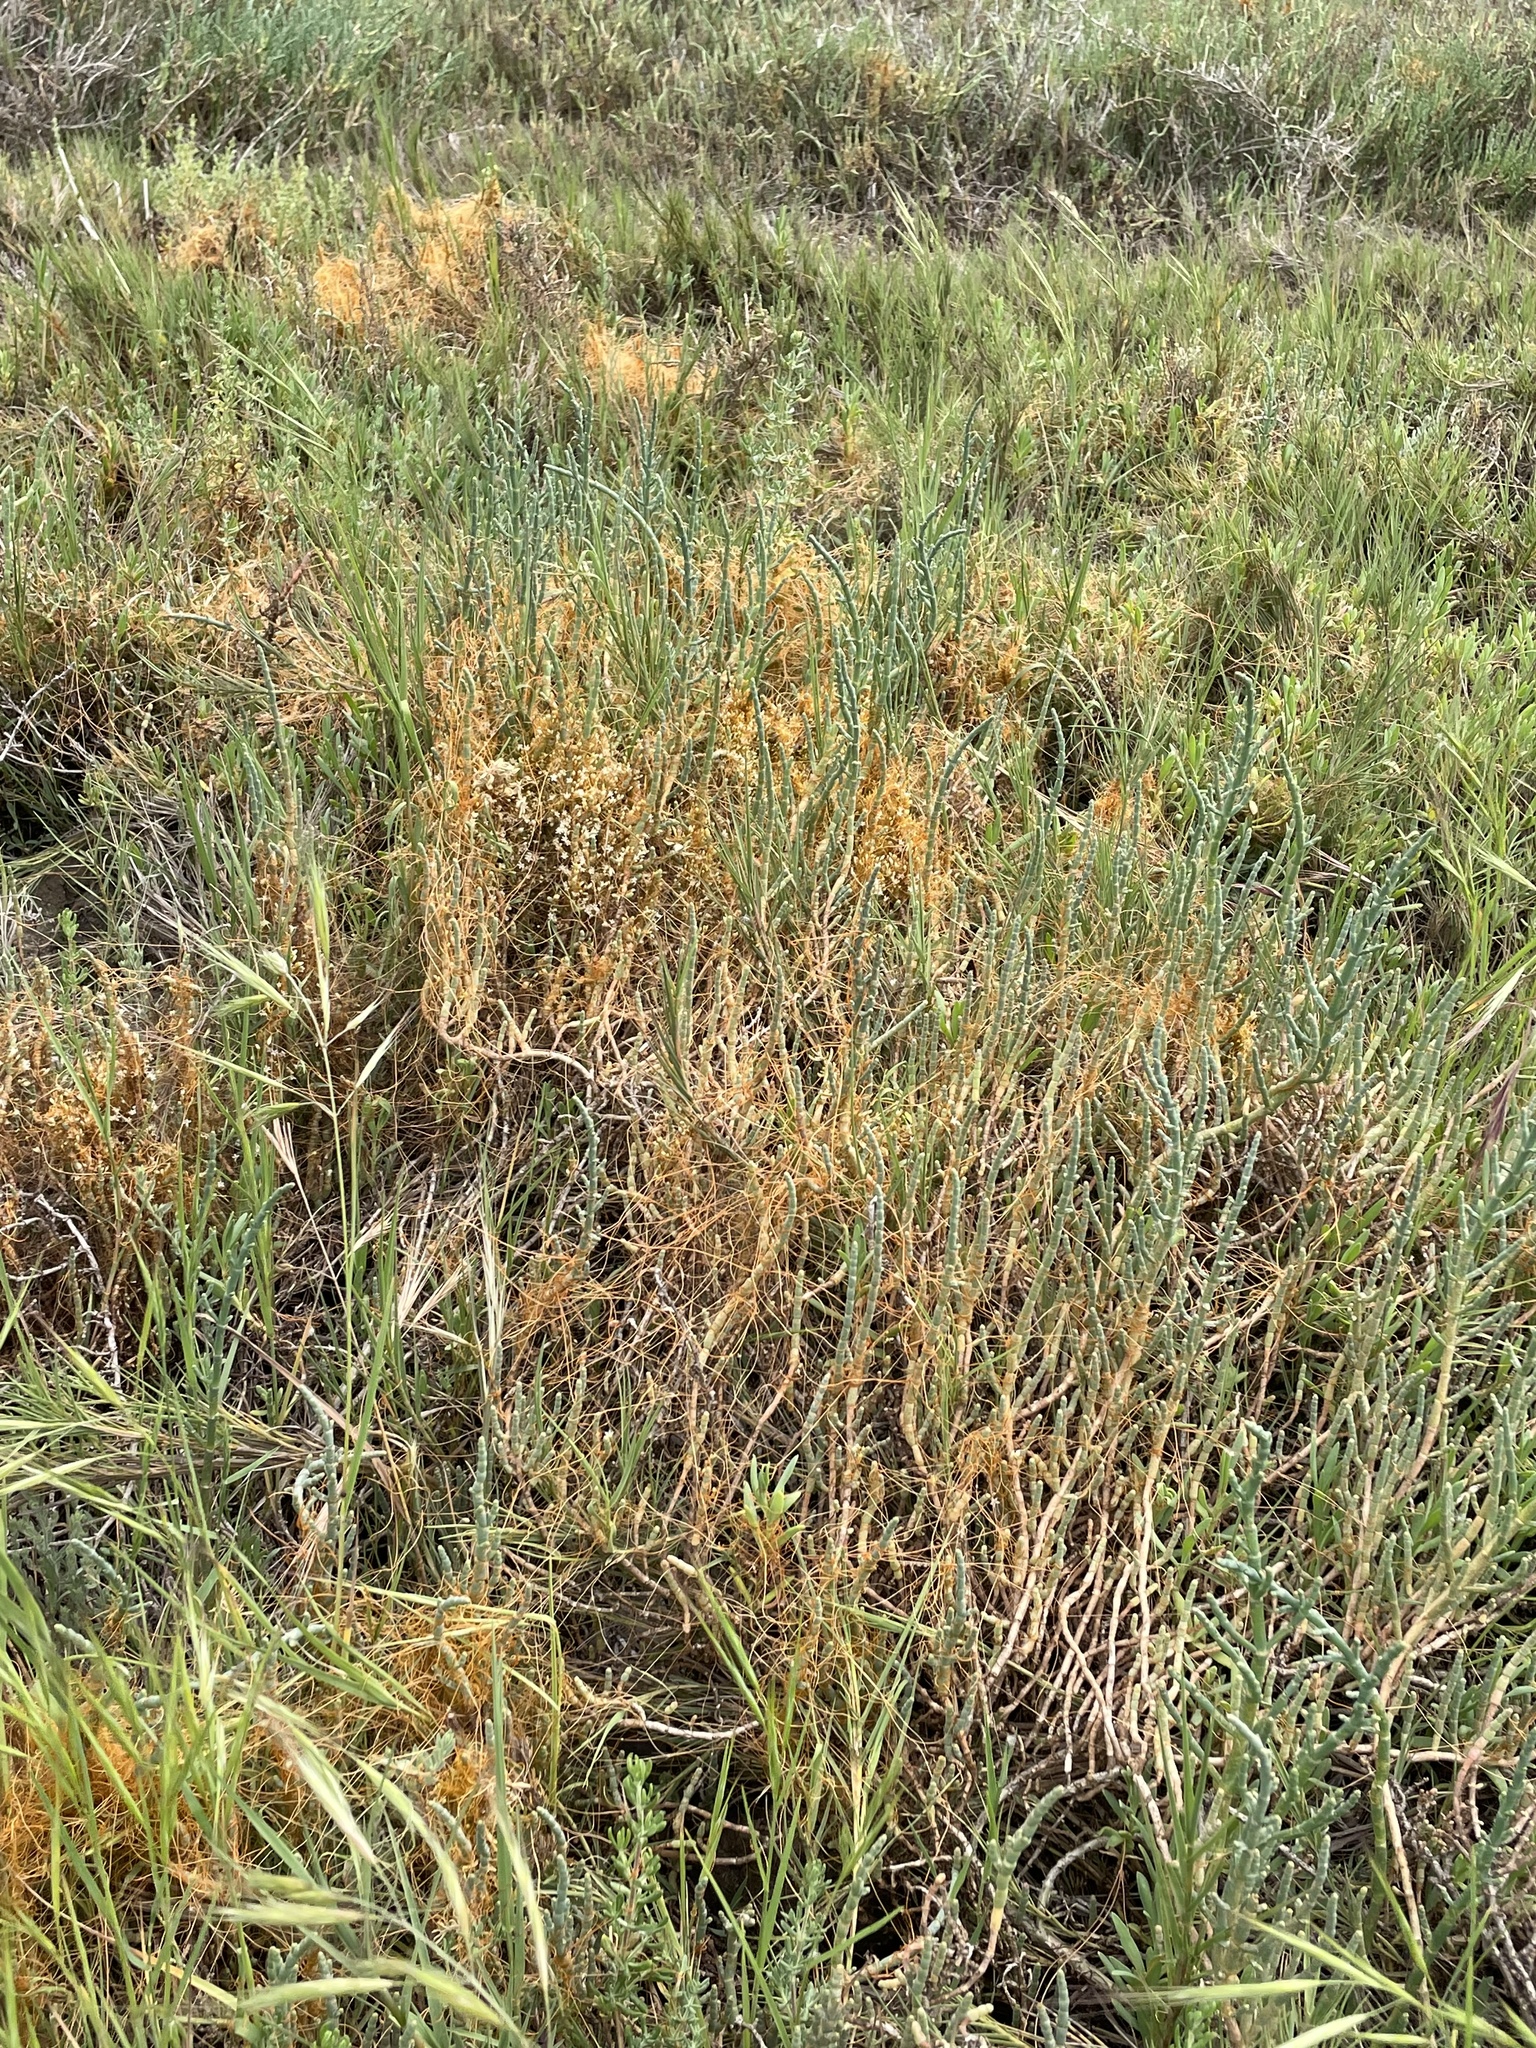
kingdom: Plantae
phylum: Tracheophyta
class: Magnoliopsida
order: Solanales
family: Convolvulaceae
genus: Cuscuta
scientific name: Cuscuta pacifica
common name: Large saltmarsh dodder
